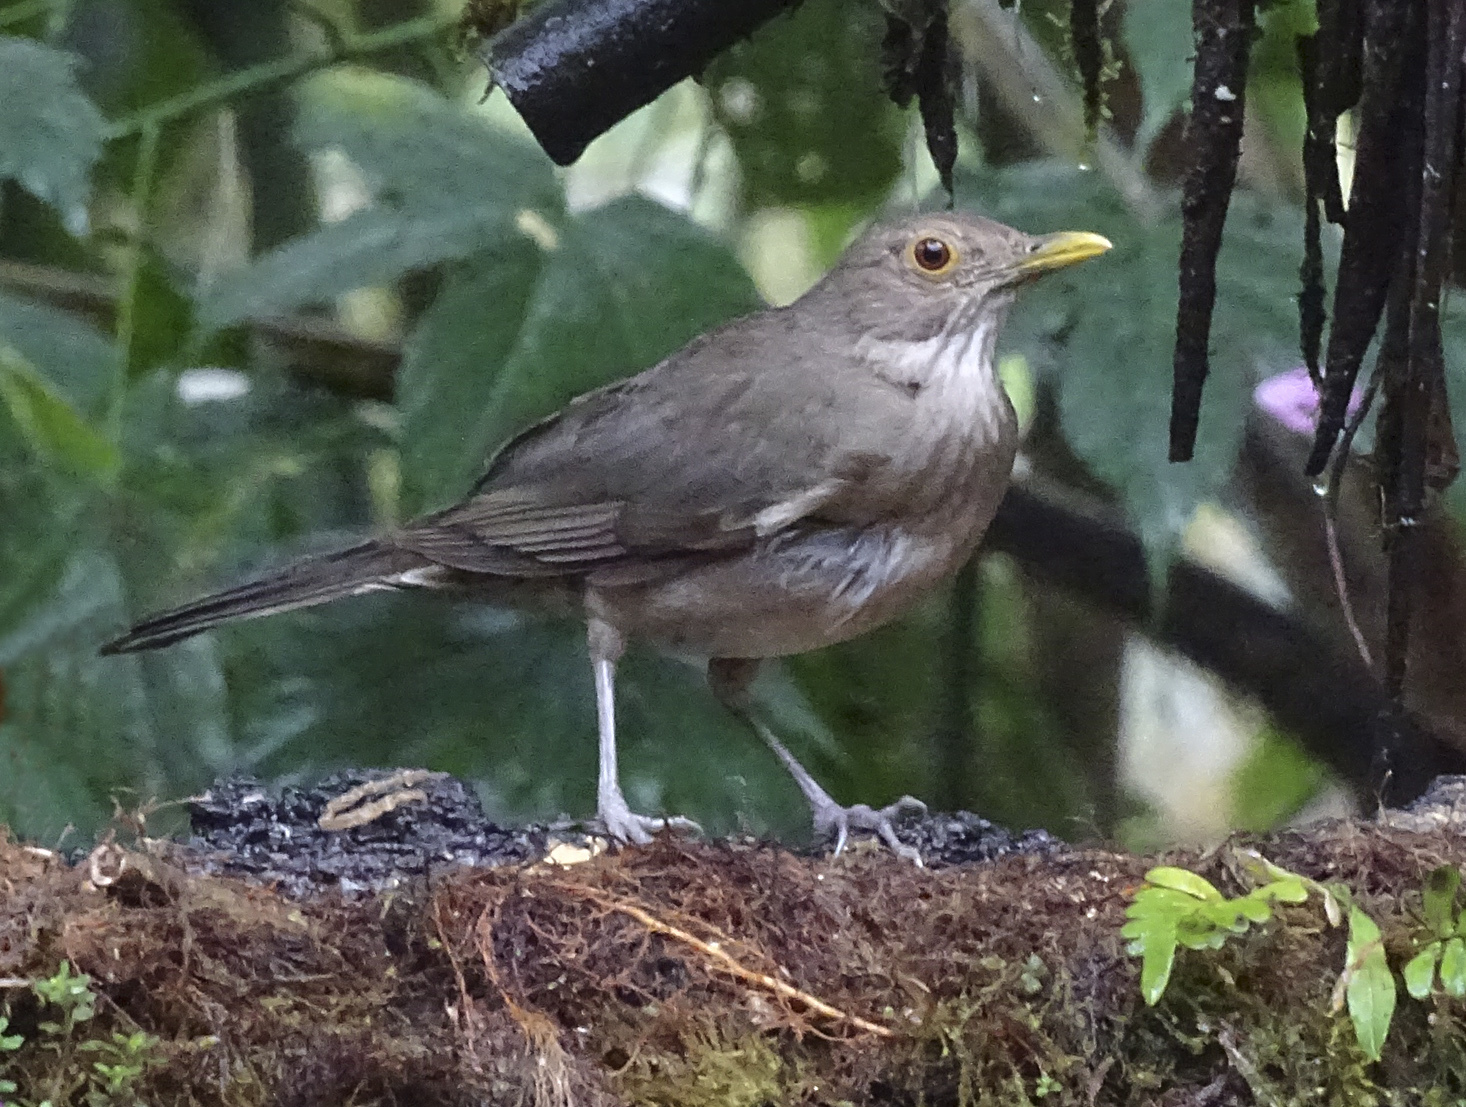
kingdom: Animalia
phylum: Chordata
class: Aves
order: Passeriformes
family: Turdidae
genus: Turdus
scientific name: Turdus maculirostris
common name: Ecuadorian thrush
